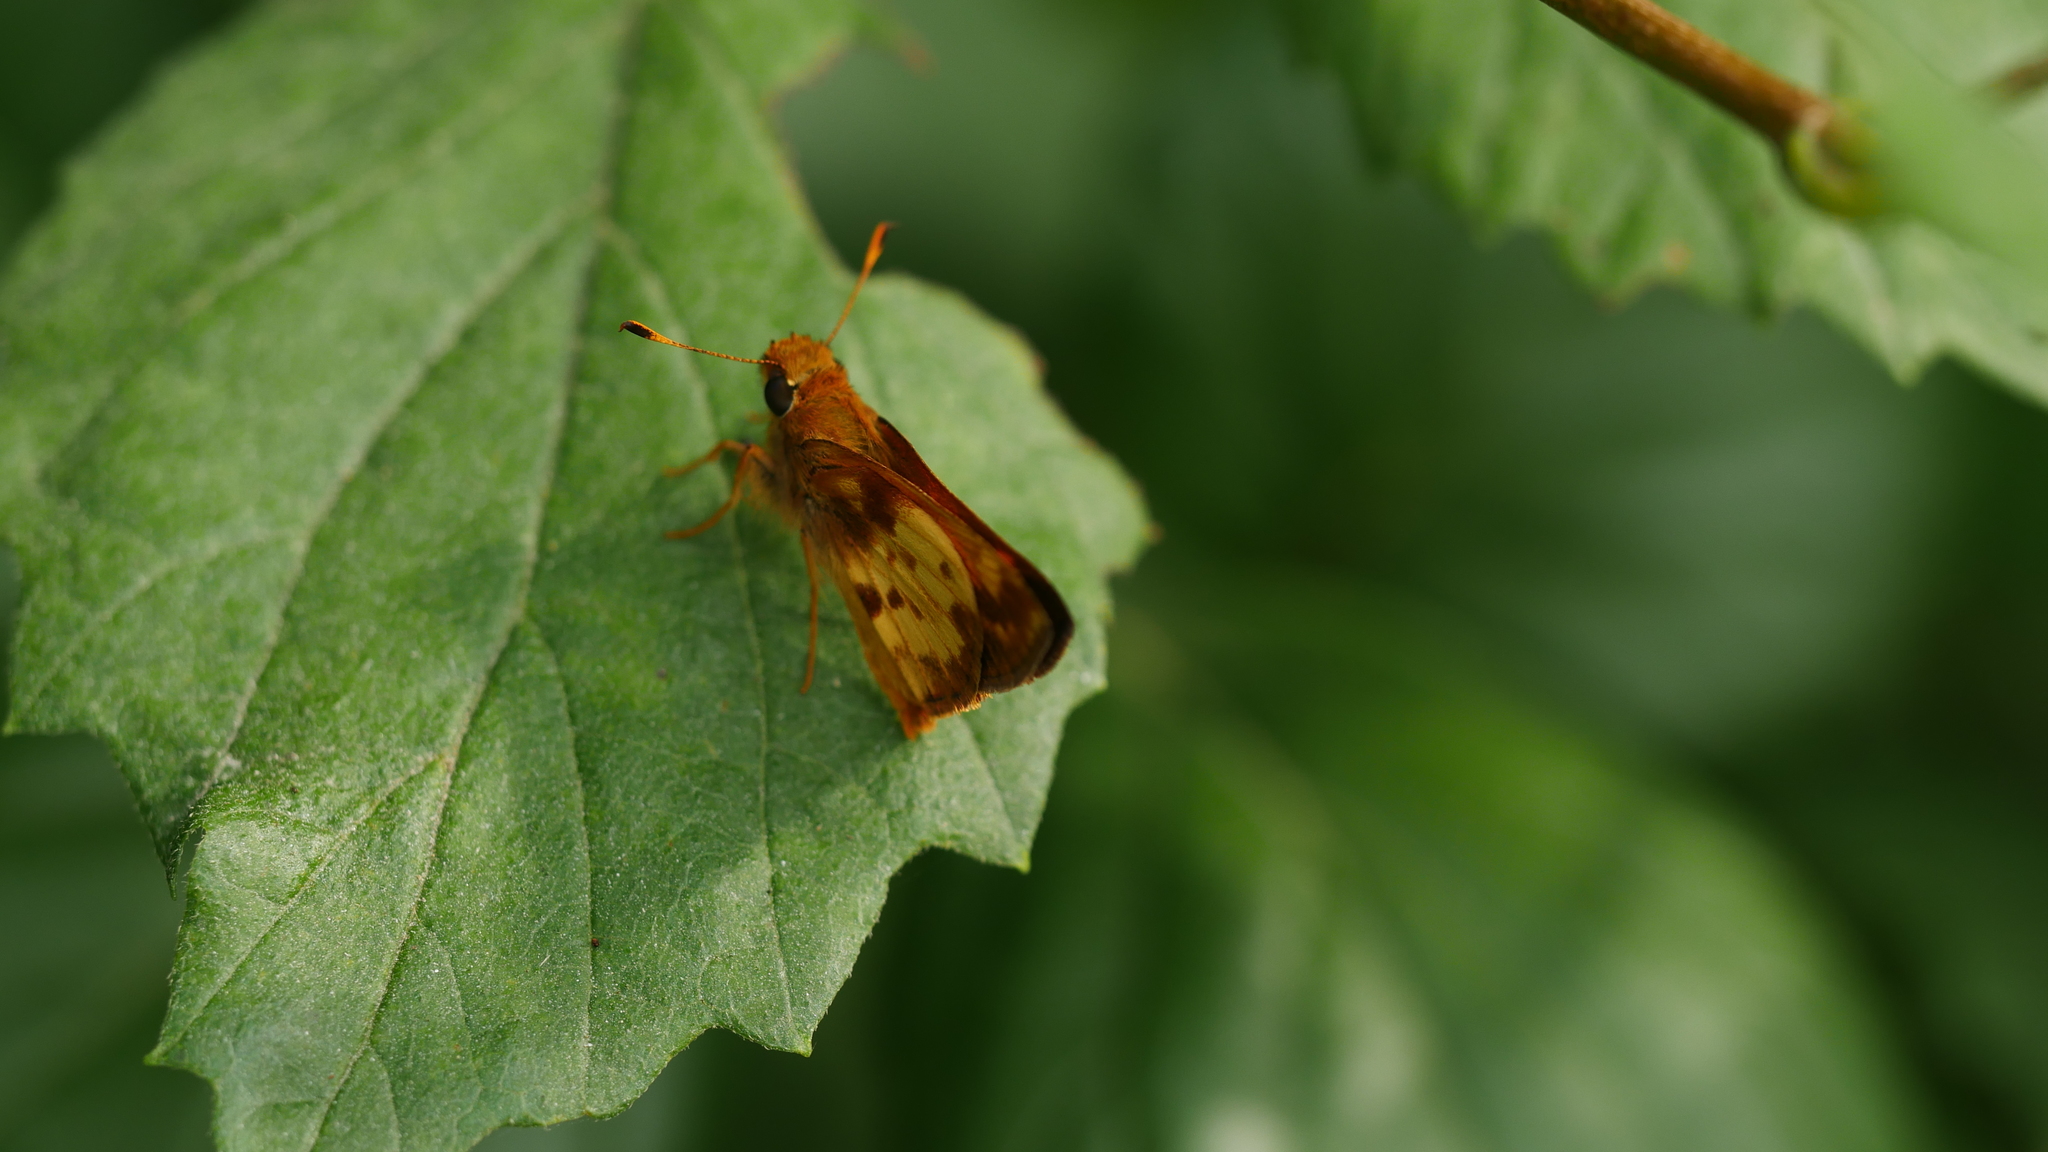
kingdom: Animalia
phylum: Arthropoda
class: Insecta
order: Lepidoptera
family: Hesperiidae
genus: Lon
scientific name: Lon zabulon
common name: Zabulon skipper
